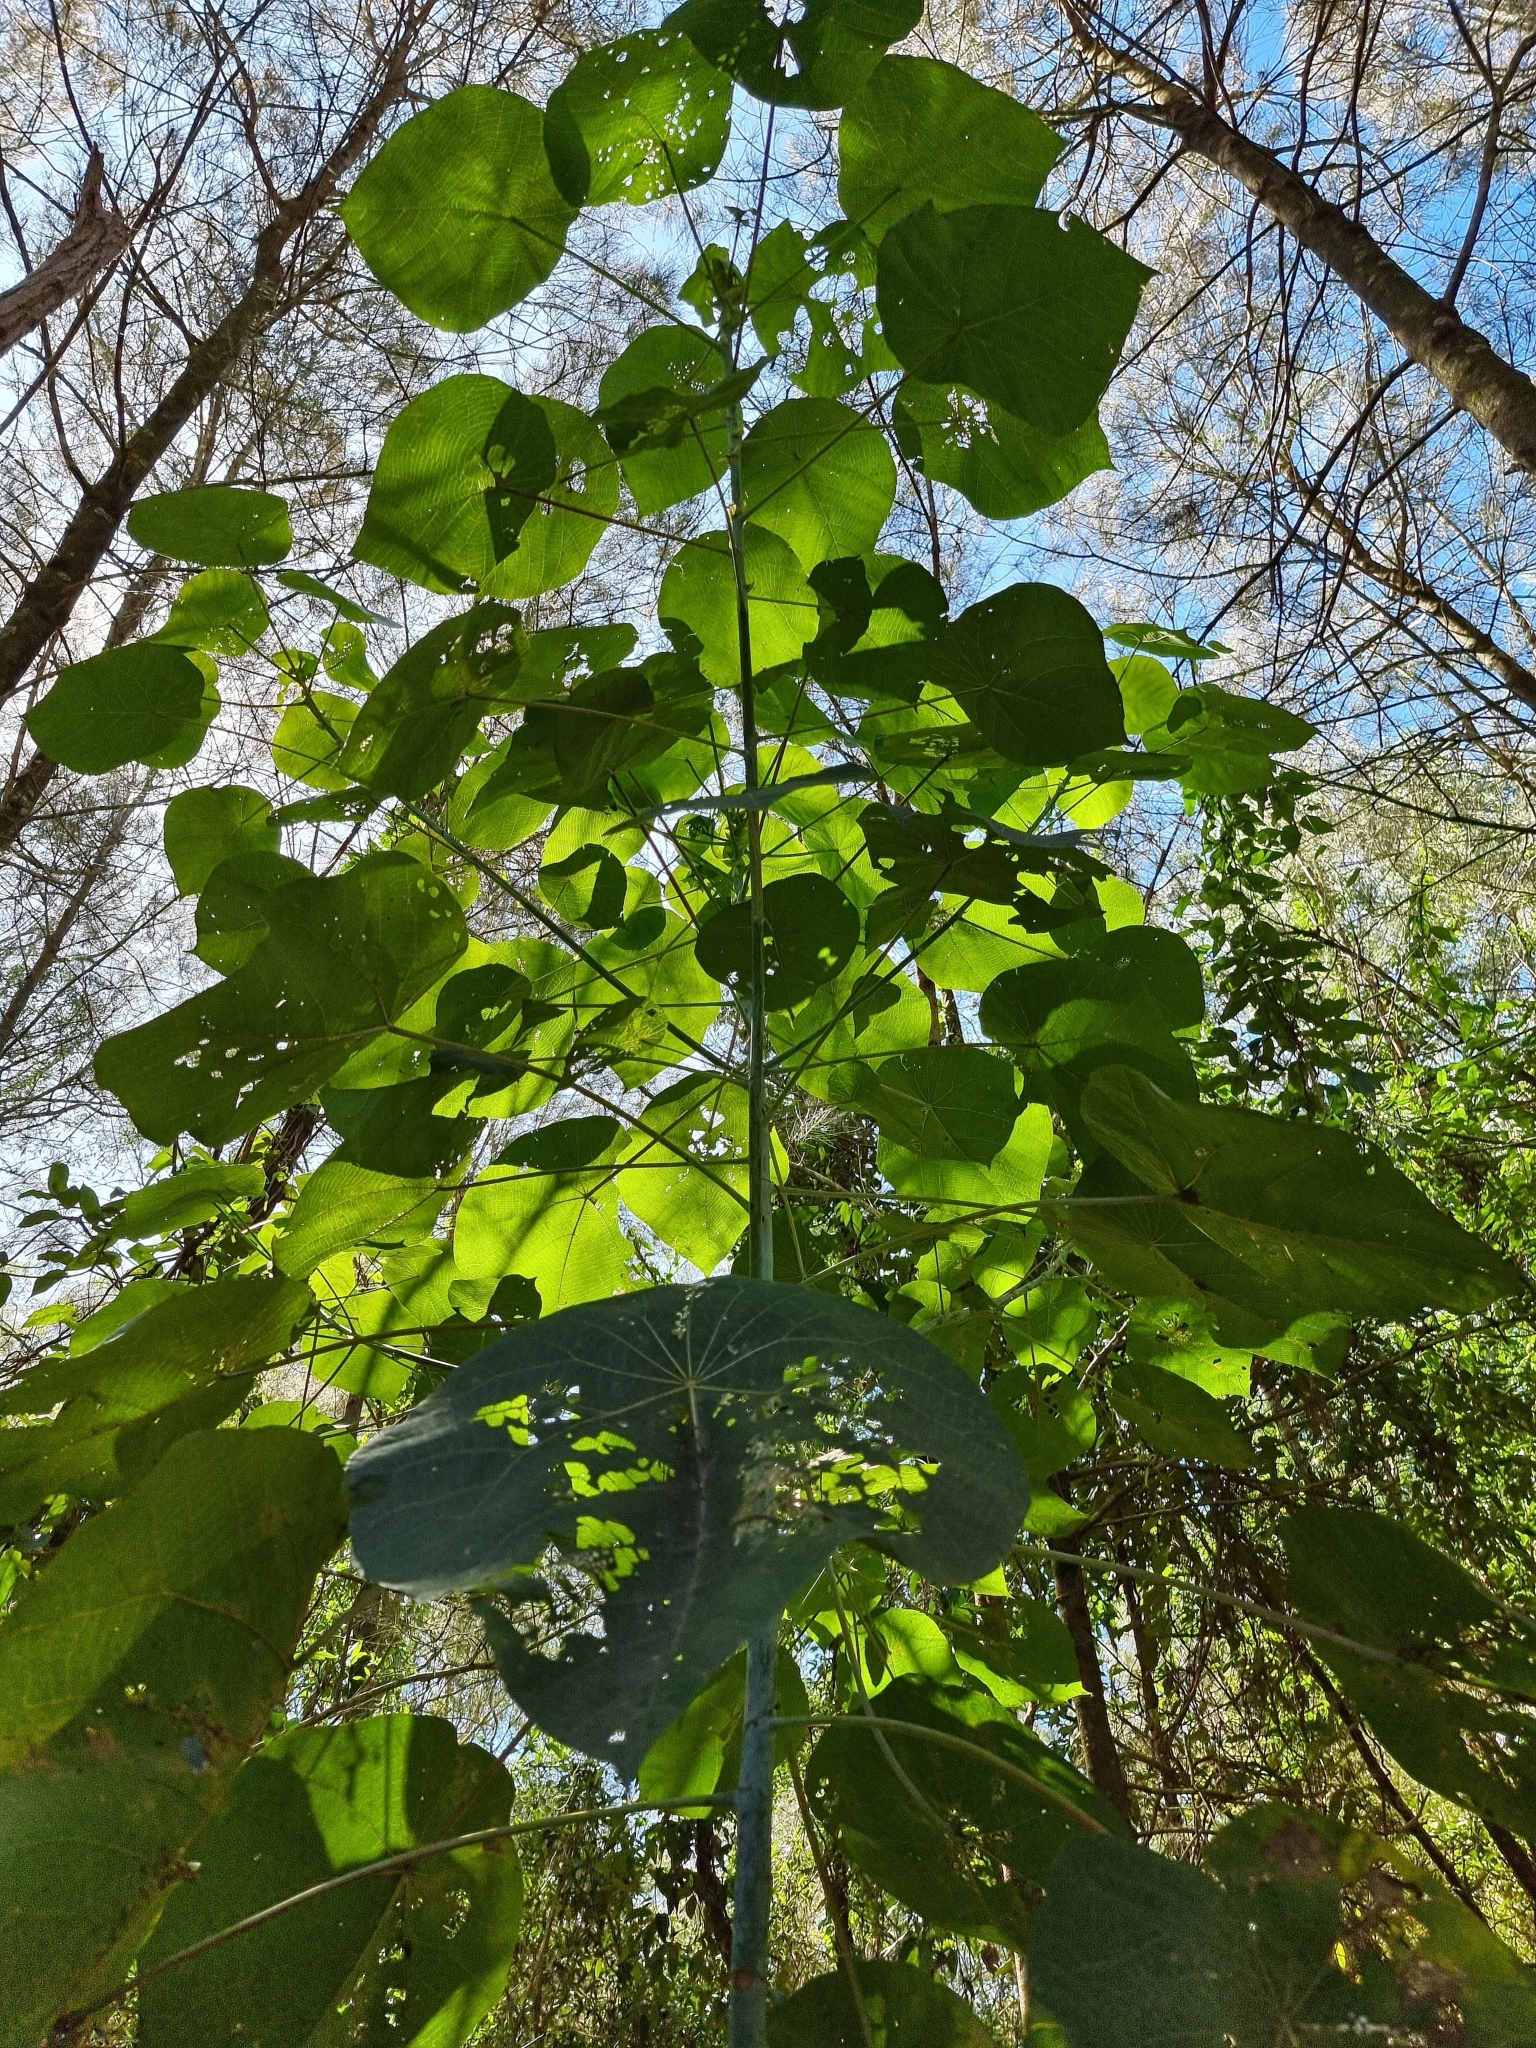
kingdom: Plantae
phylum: Tracheophyta
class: Magnoliopsida
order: Malpighiales
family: Euphorbiaceae
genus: Macaranga
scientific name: Macaranga tanarius
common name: Parasol leaf tree
